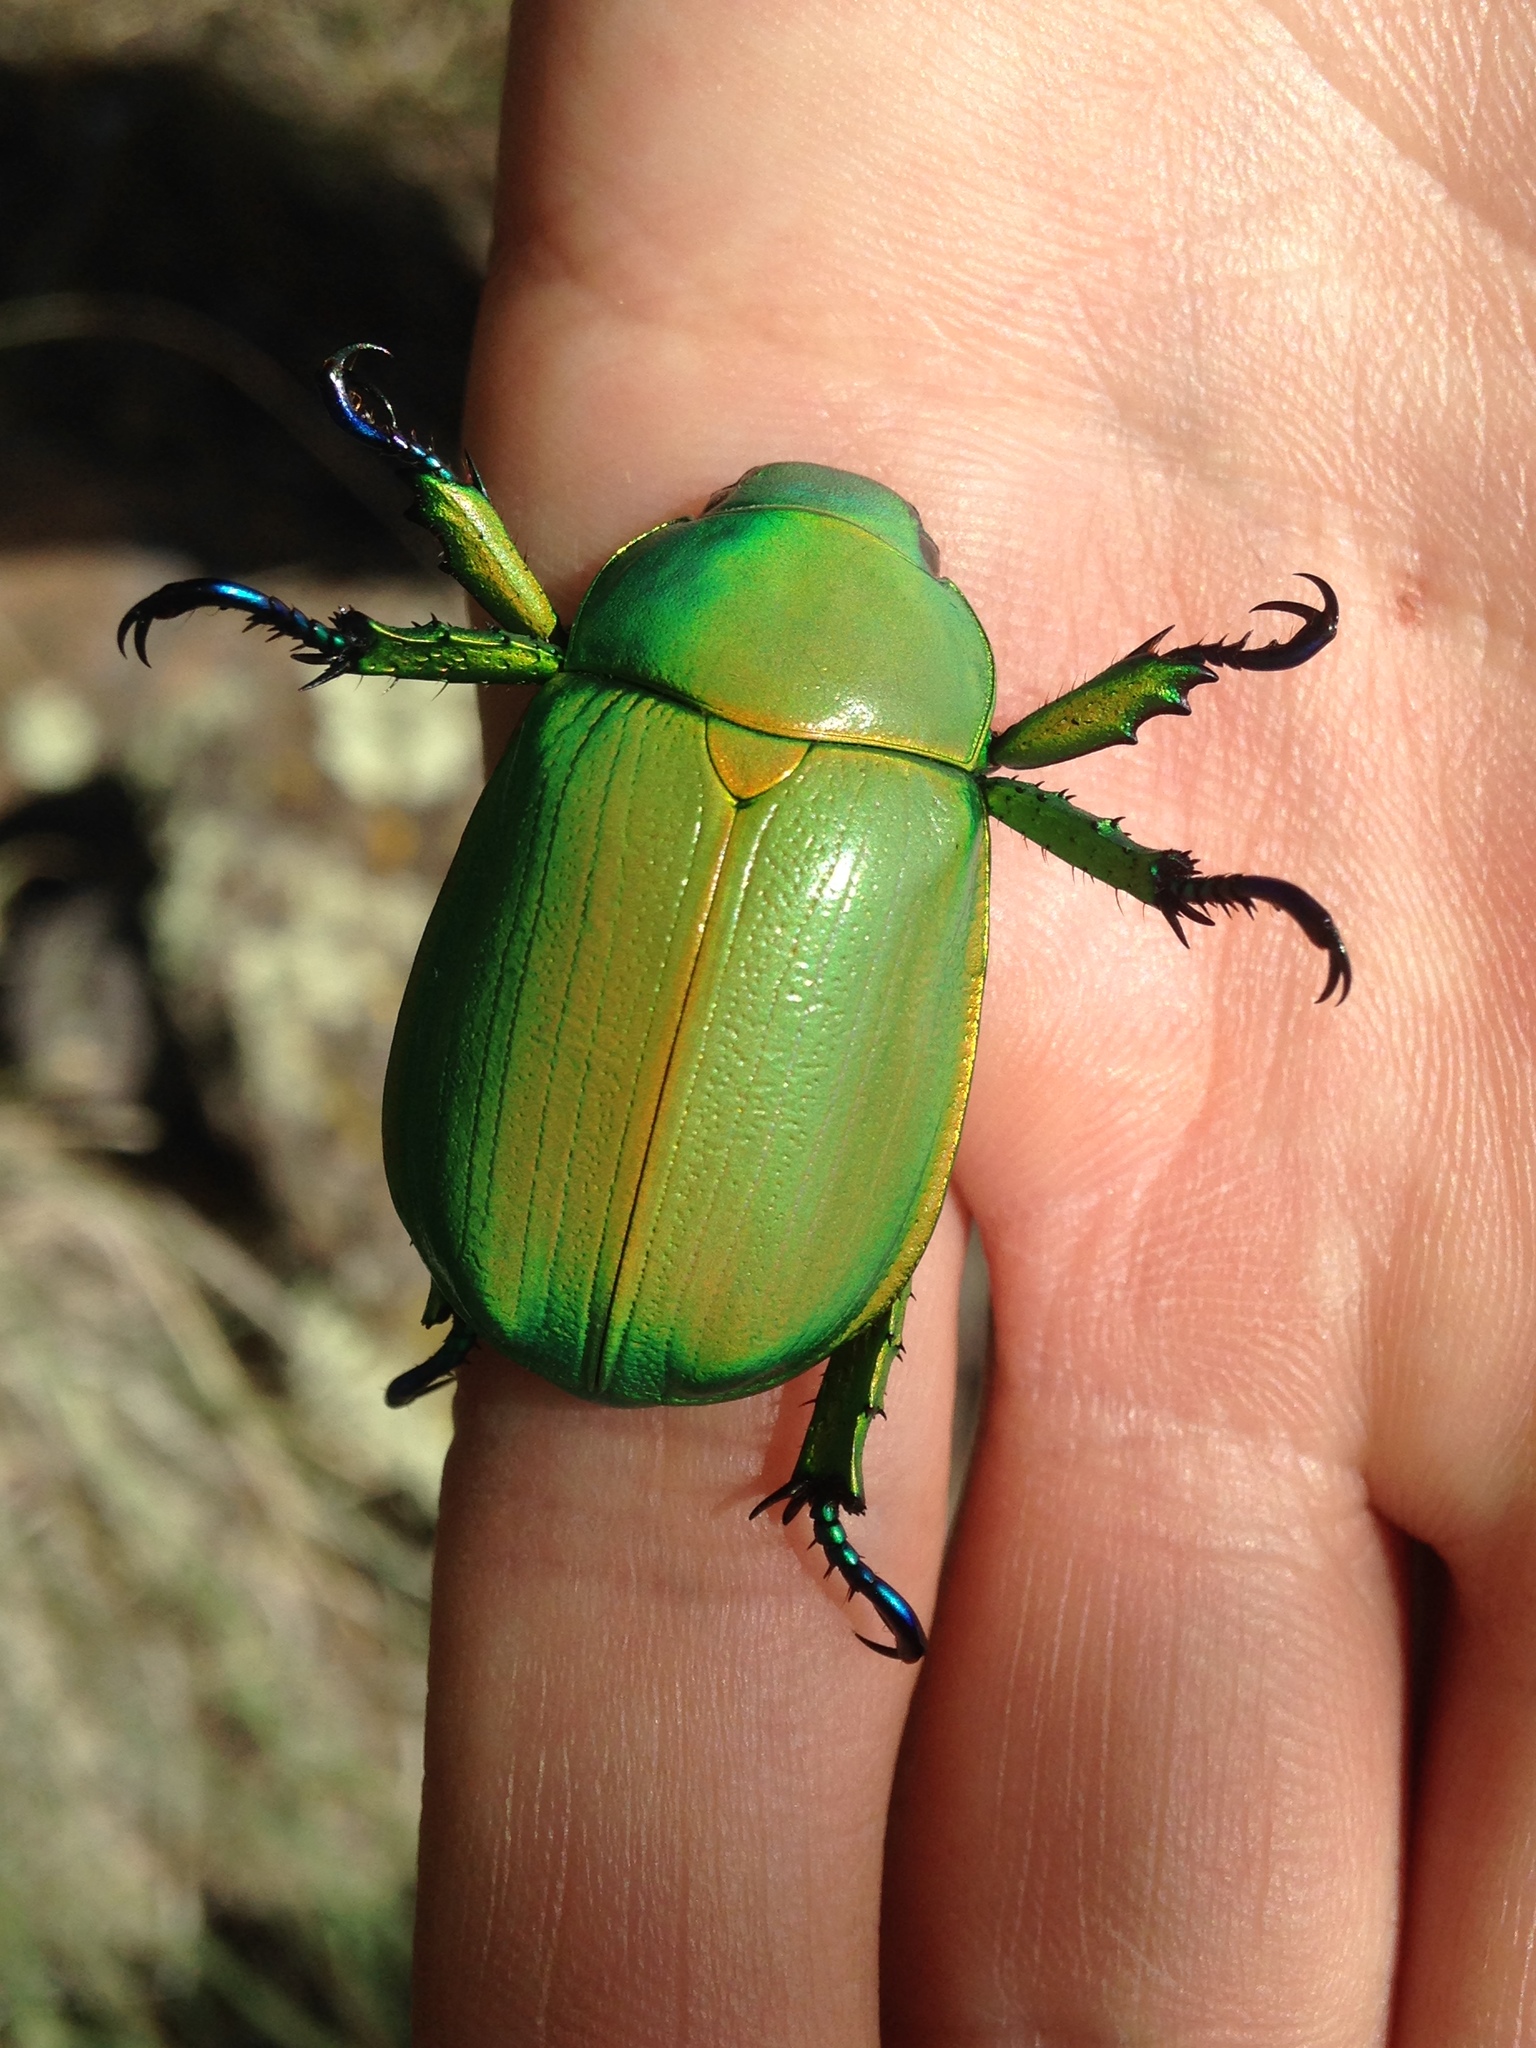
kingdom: Animalia
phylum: Arthropoda
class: Insecta
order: Coleoptera
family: Scarabaeidae
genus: Chrysina
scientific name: Chrysina woodi
